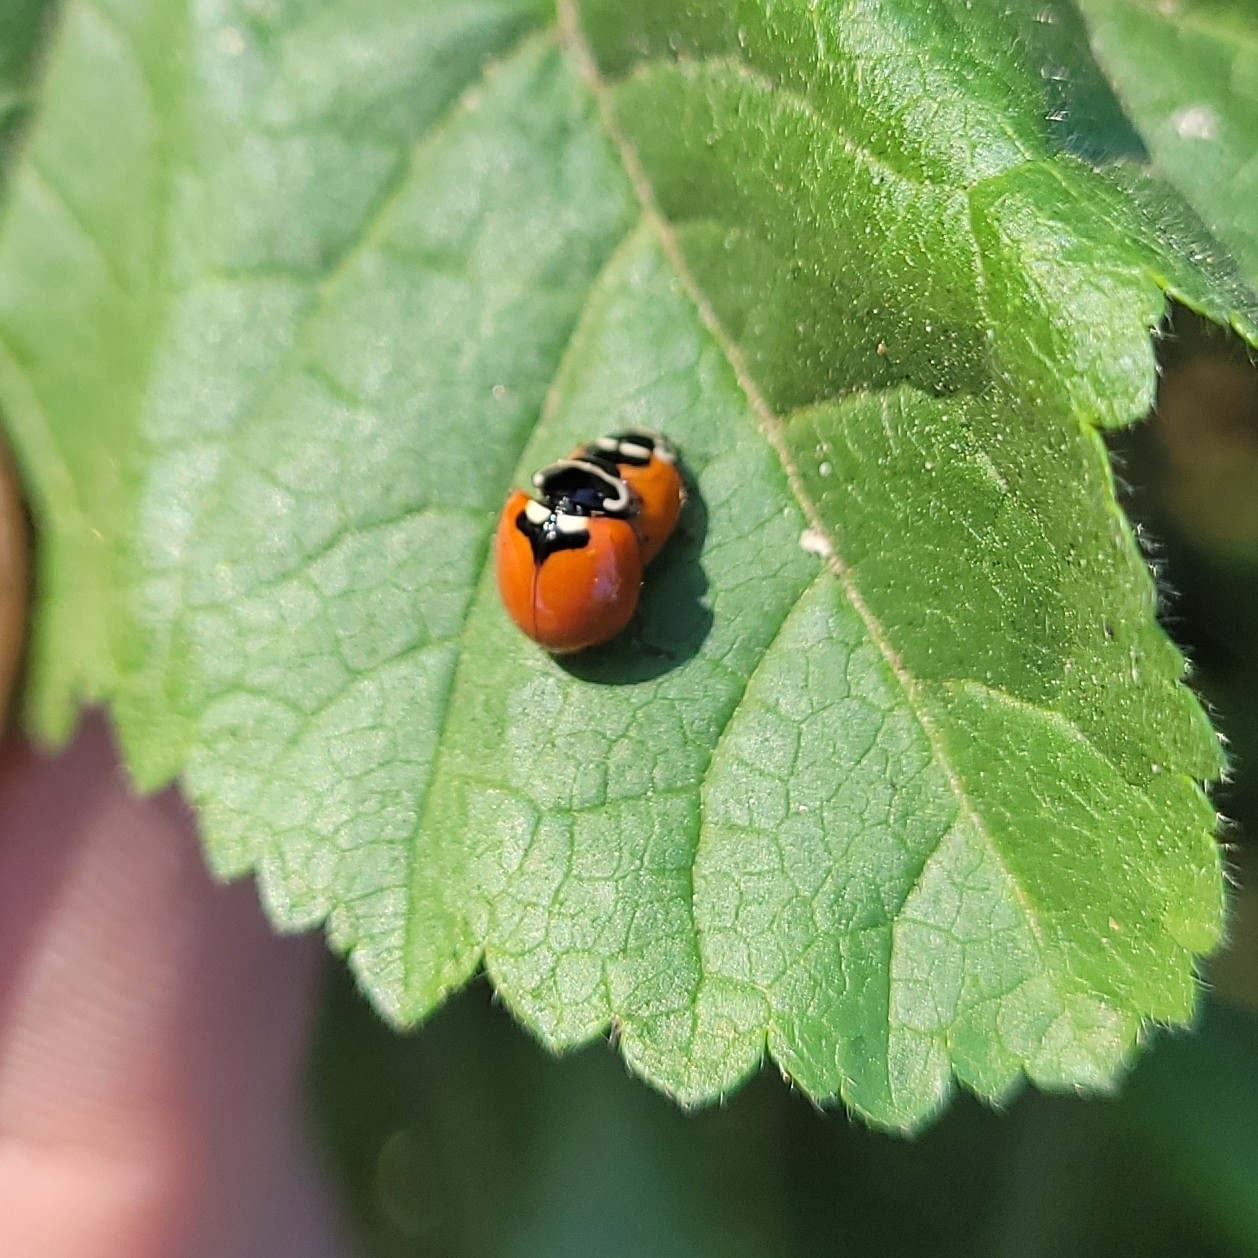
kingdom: Animalia
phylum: Arthropoda
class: Insecta
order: Coleoptera
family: Coccinellidae
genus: Adalia
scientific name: Adalia deficiens
